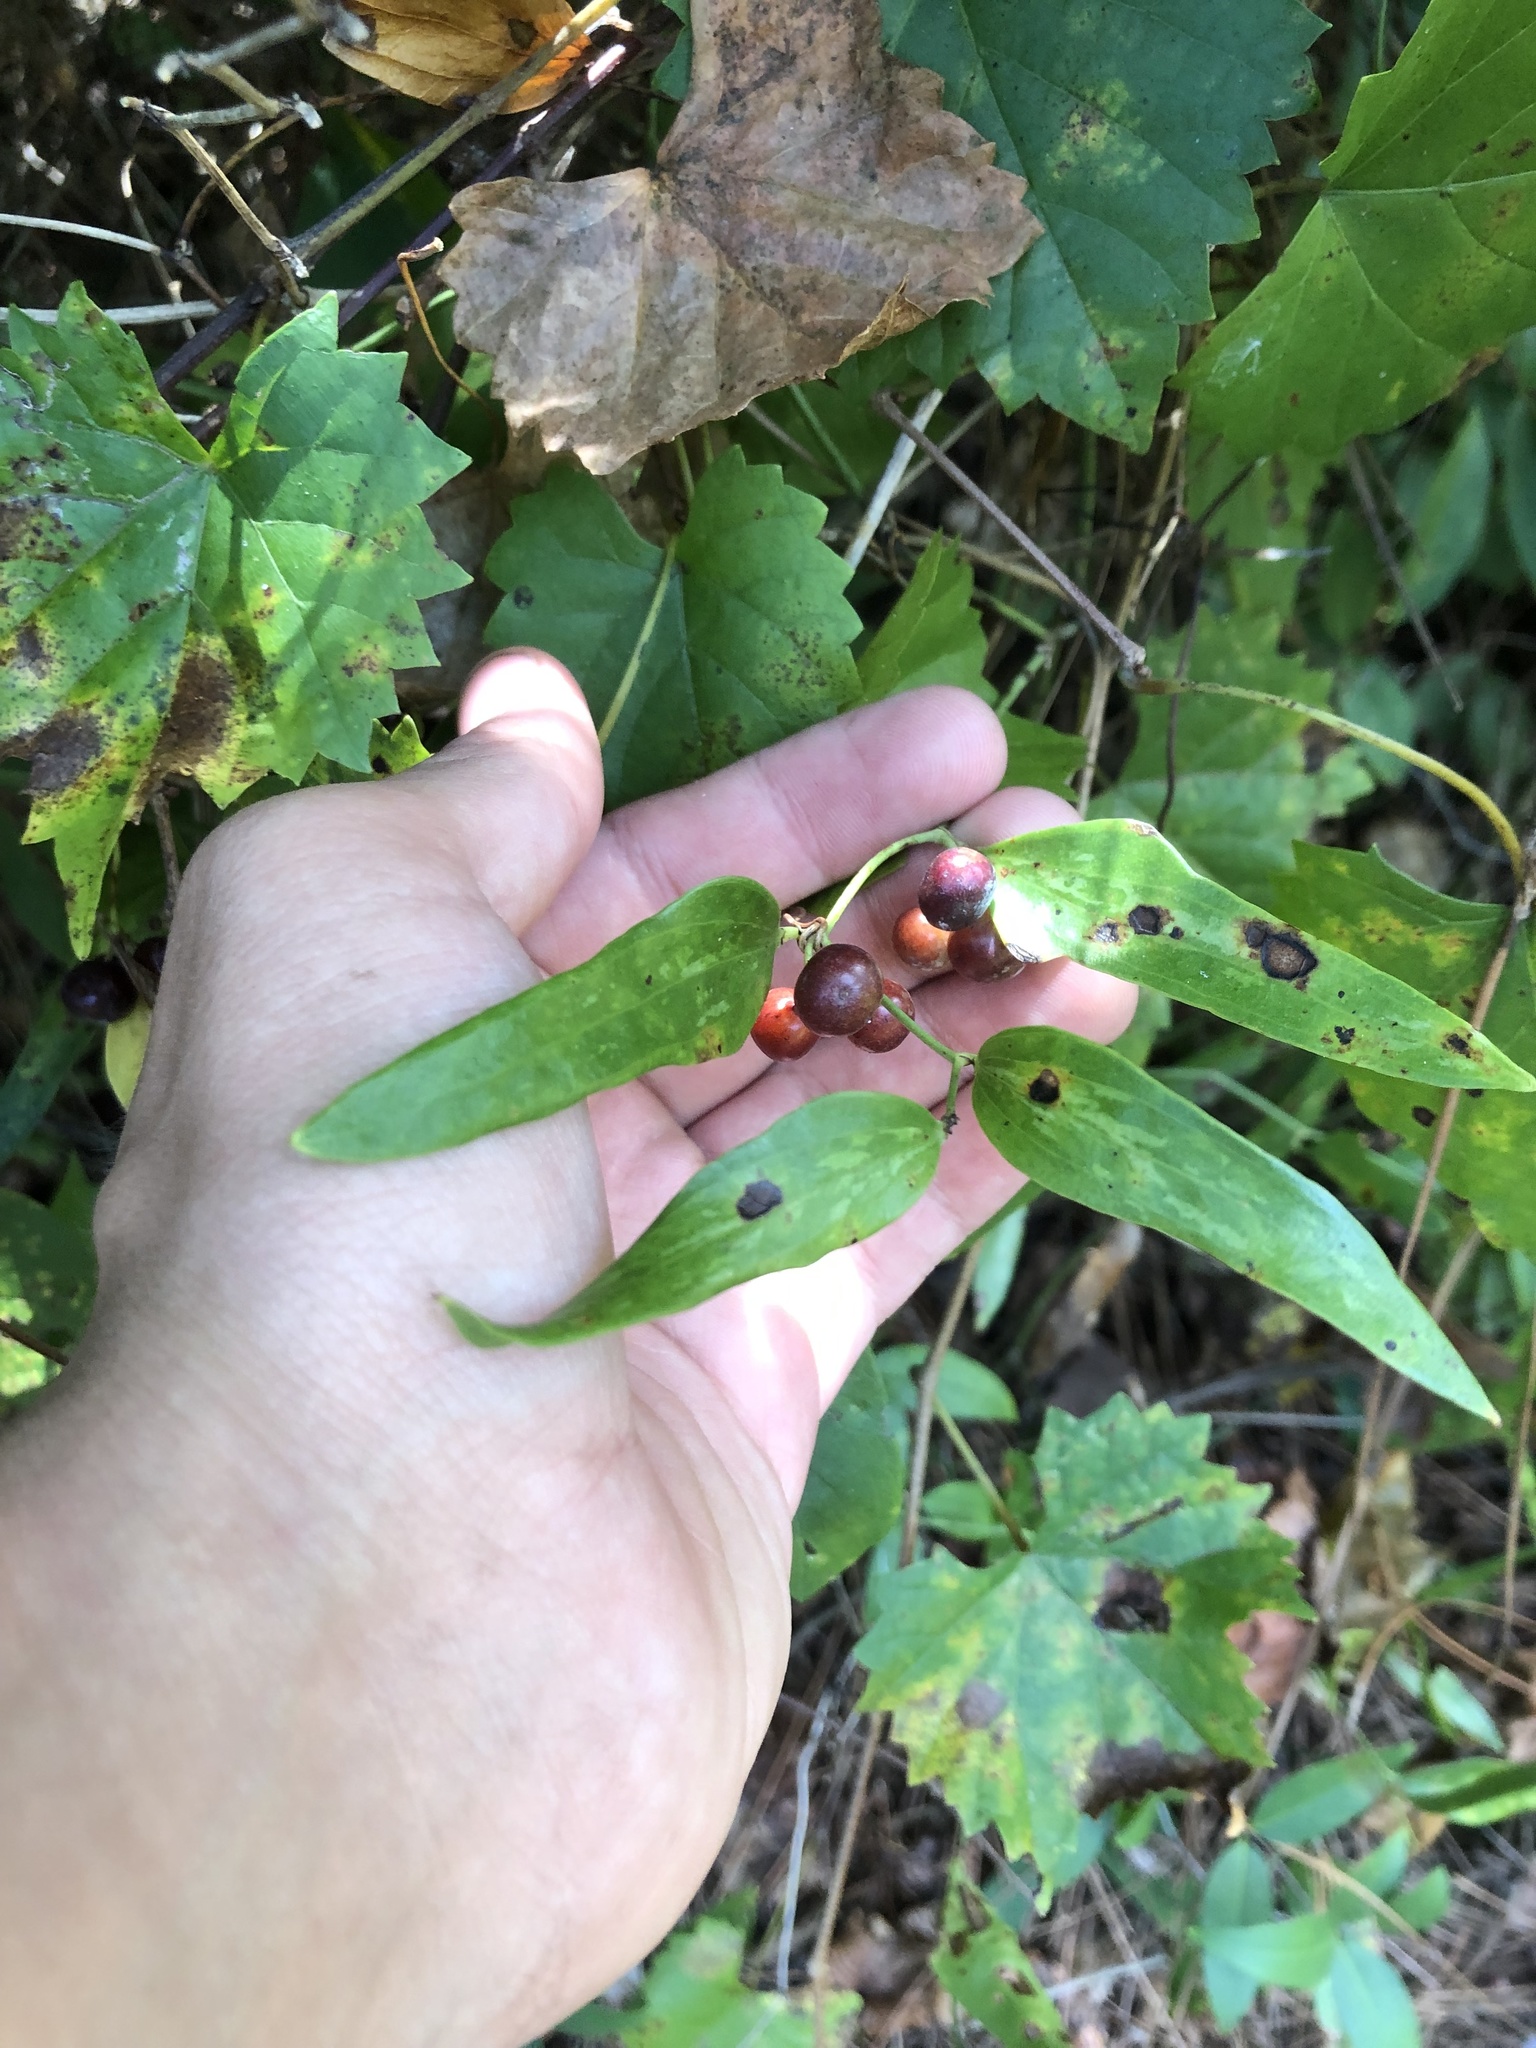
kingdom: Plantae
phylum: Tracheophyta
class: Liliopsida
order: Liliales
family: Smilacaceae
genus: Smilax
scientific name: Smilax auriculata
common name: Wild bamboo
